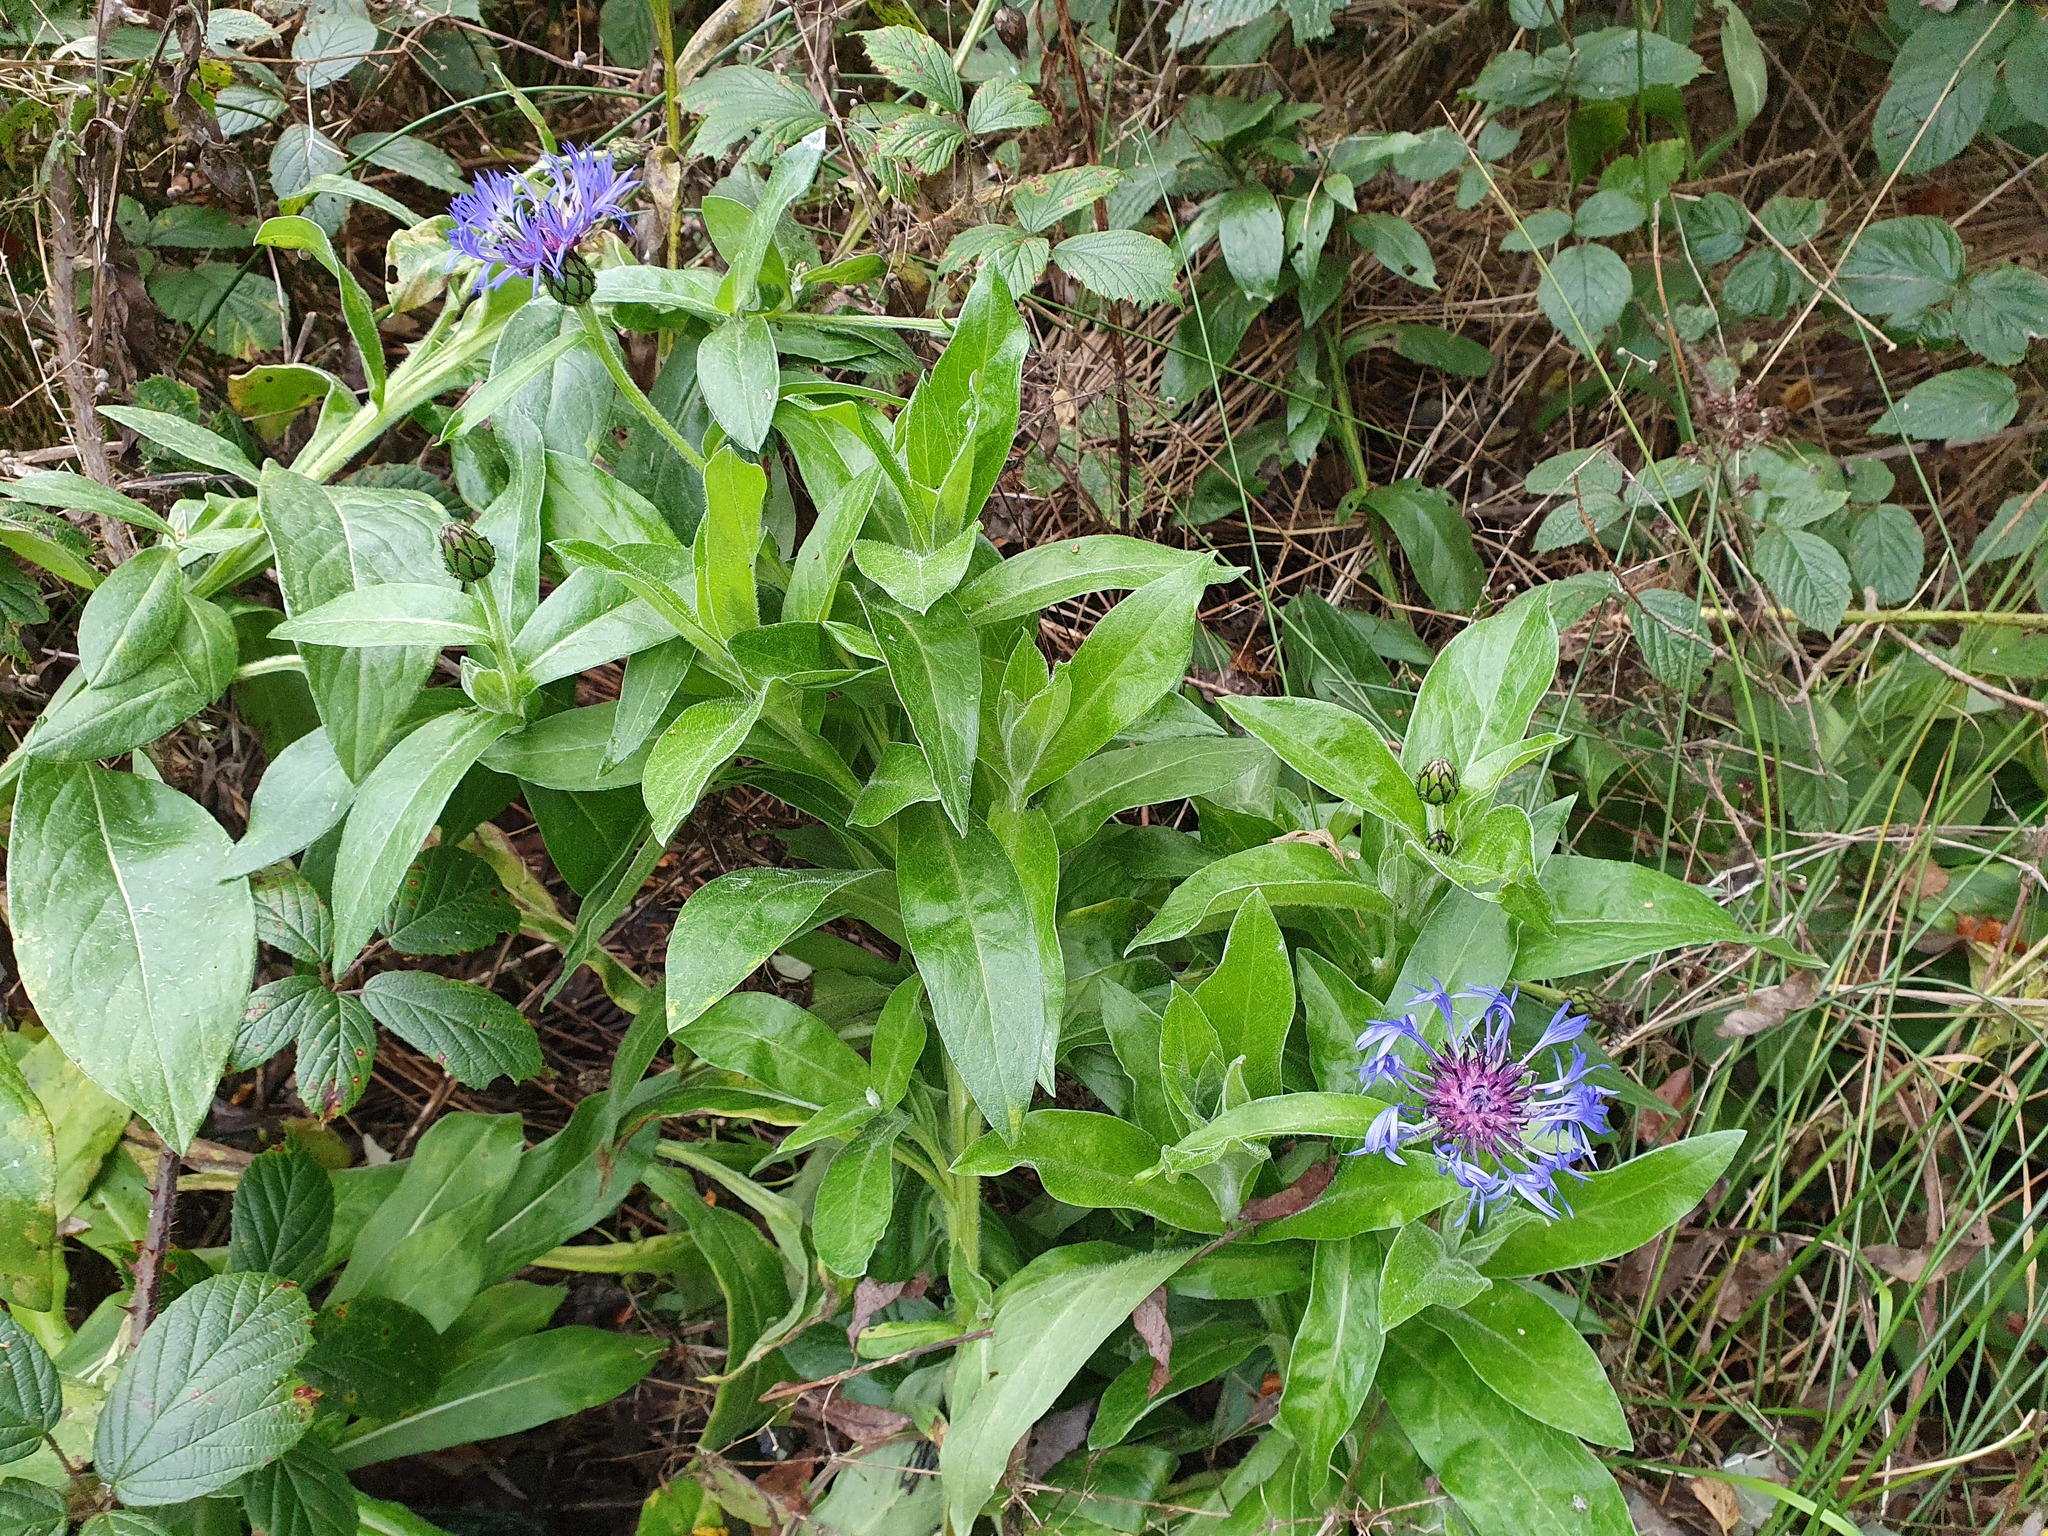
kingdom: Plantae
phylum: Tracheophyta
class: Magnoliopsida
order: Asterales
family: Asteraceae
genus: Centaurea
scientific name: Centaurea montana
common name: Perennial cornflower
